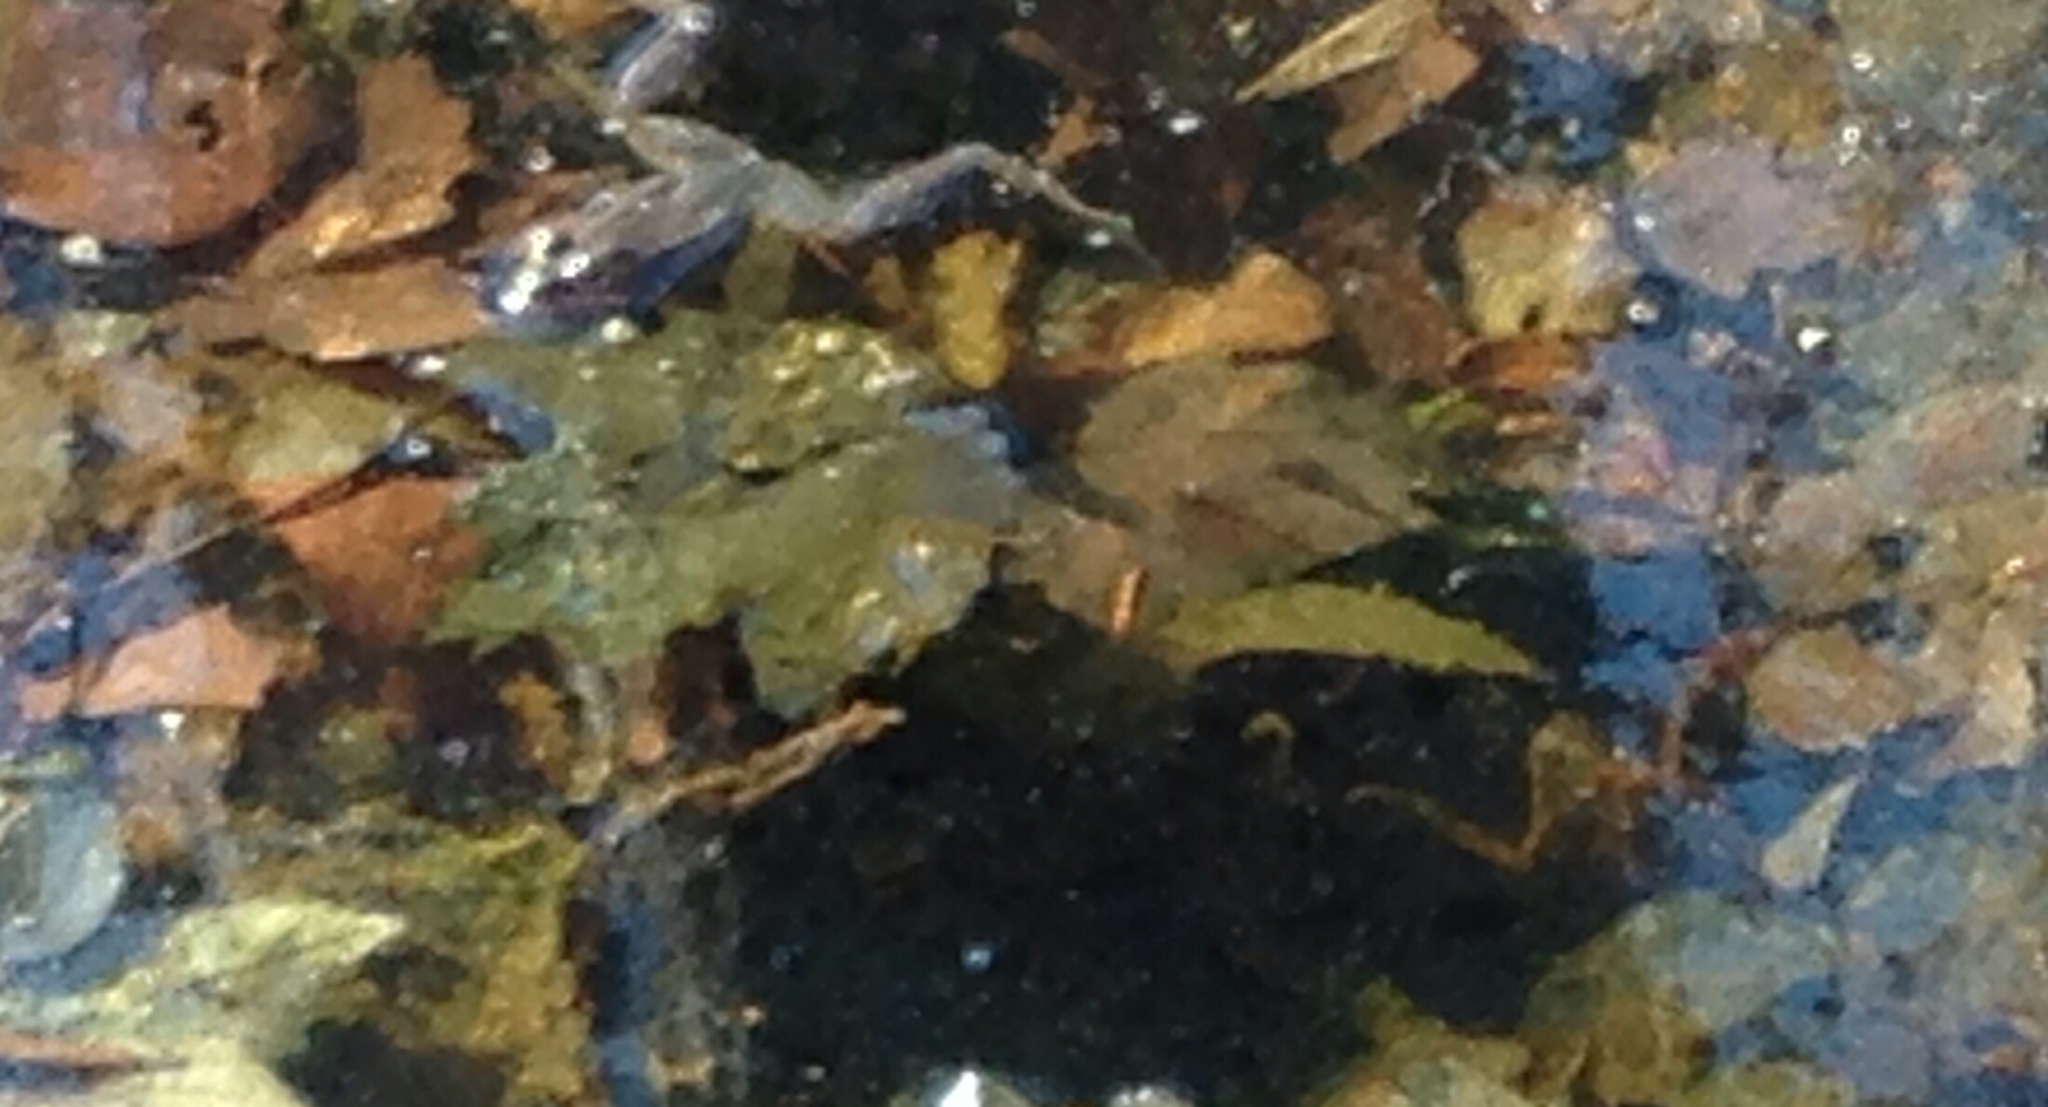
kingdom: Animalia
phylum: Chordata
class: Amphibia
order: Anura
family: Ranidae
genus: Lithobates
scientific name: Lithobates sylvaticus
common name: Wood frog
